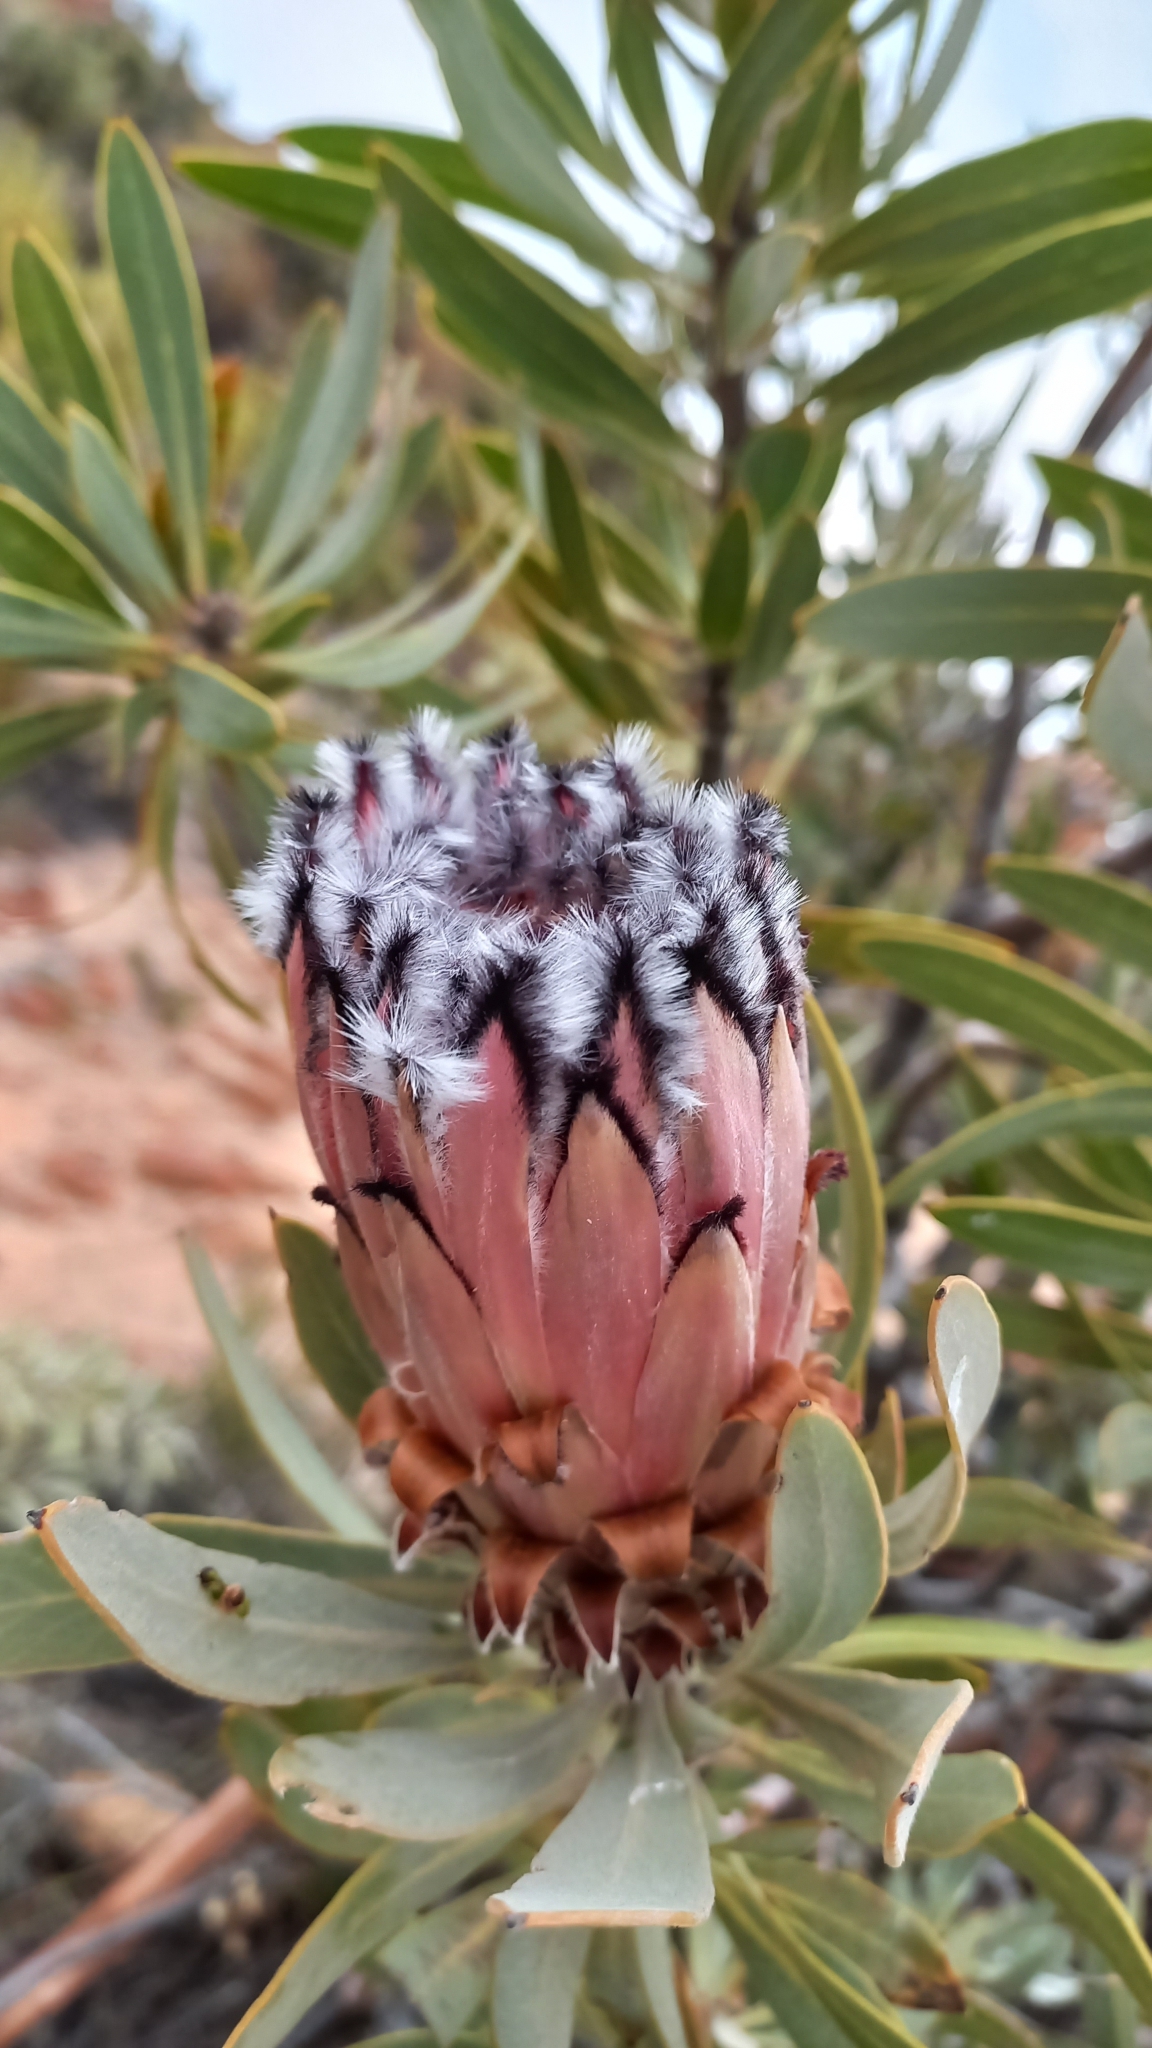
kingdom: Plantae
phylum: Tracheophyta
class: Magnoliopsida
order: Proteales
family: Proteaceae
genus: Protea
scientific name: Protea laurifolia
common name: Grey-leaf sugarbsh
